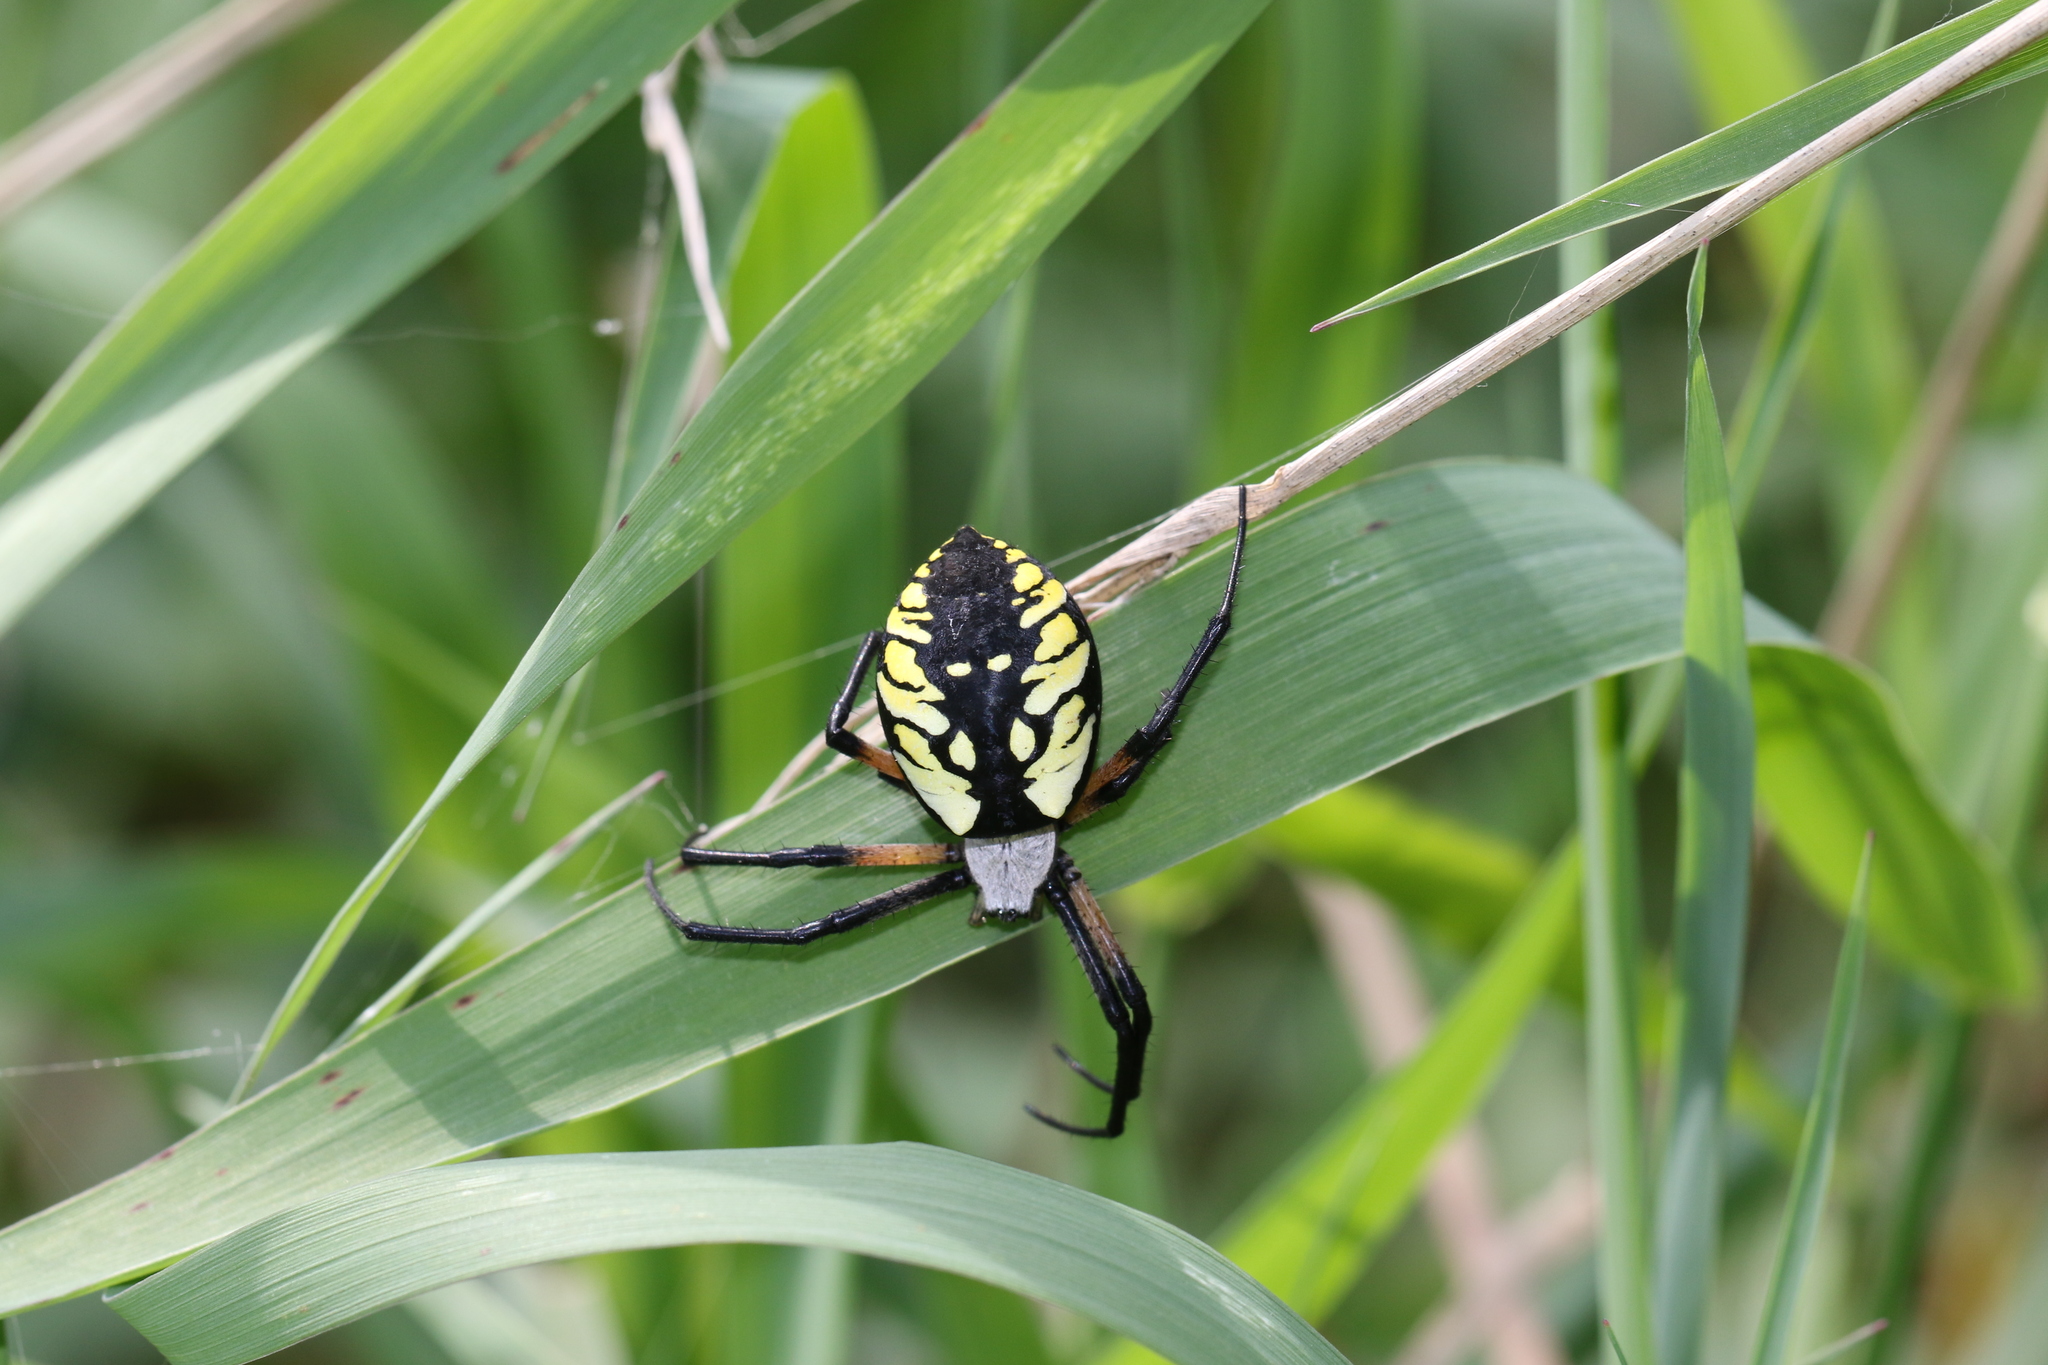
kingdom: Animalia
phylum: Arthropoda
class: Arachnida
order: Araneae
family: Araneidae
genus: Argiope
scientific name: Argiope aurantia
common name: Orb weavers
